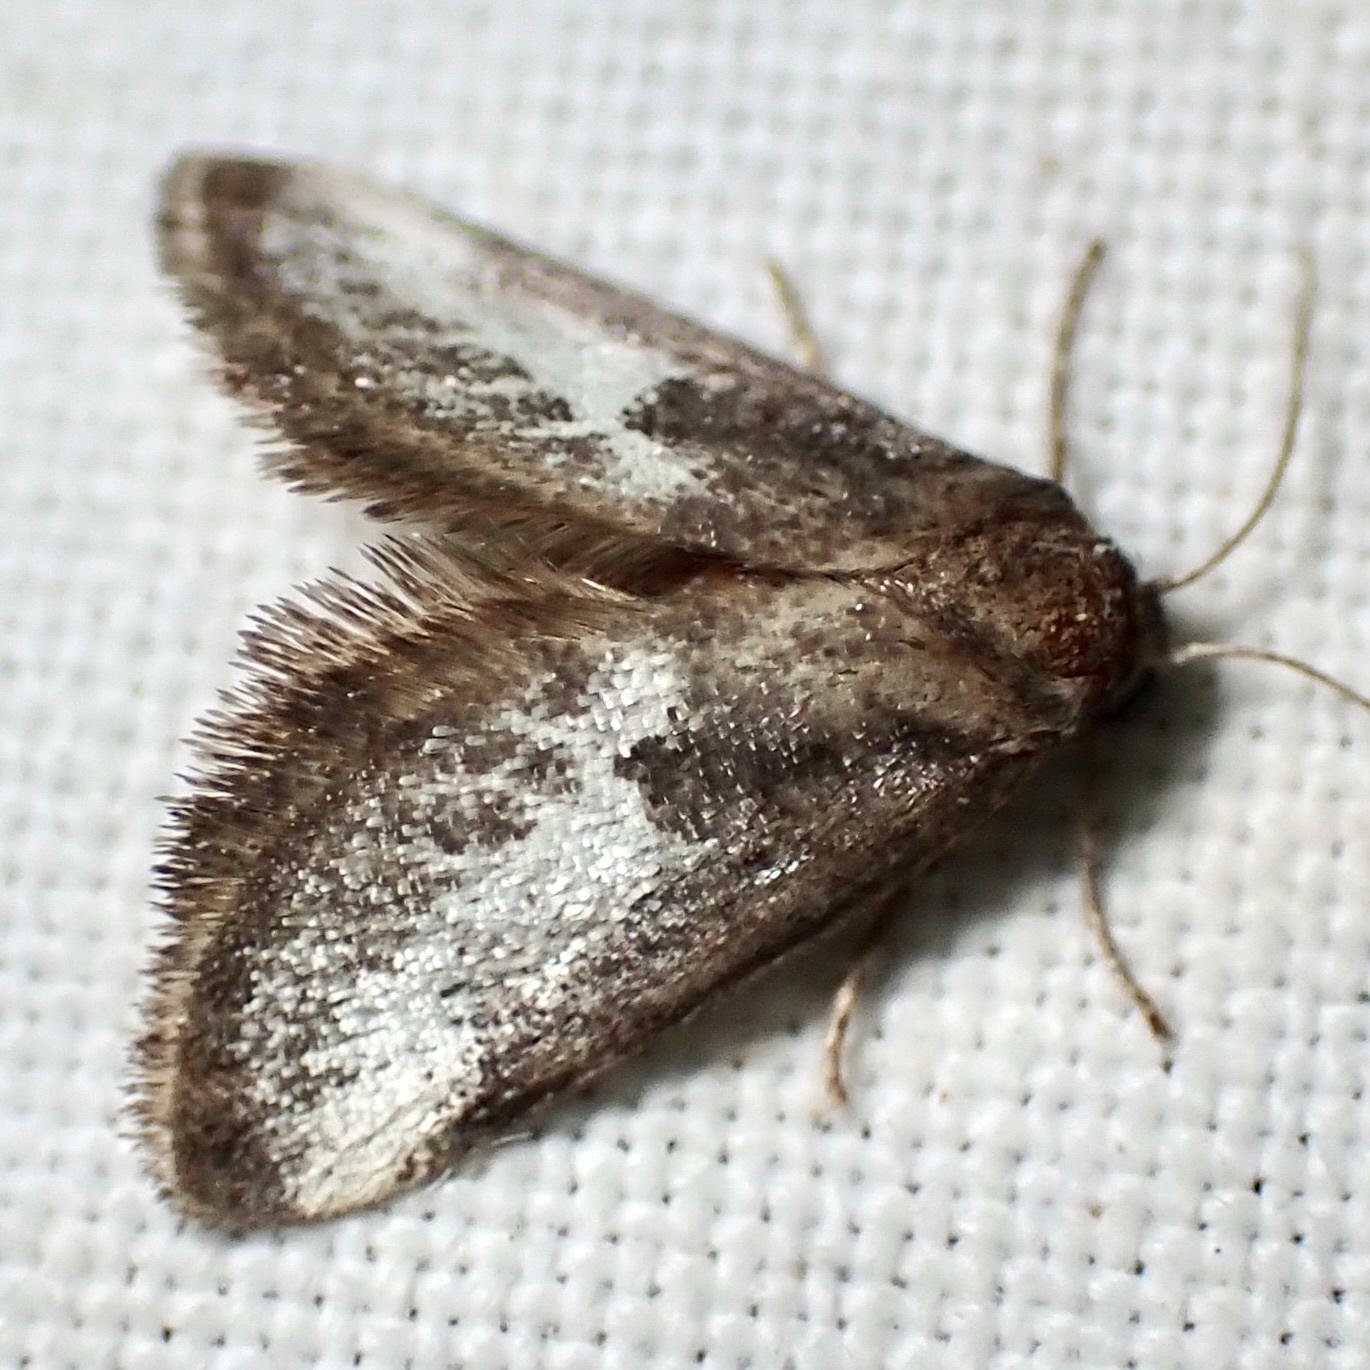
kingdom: Animalia
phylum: Arthropoda
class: Insecta
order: Lepidoptera
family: Limacodidae
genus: Cryptophobetron
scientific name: Cryptophobetron oropeso
